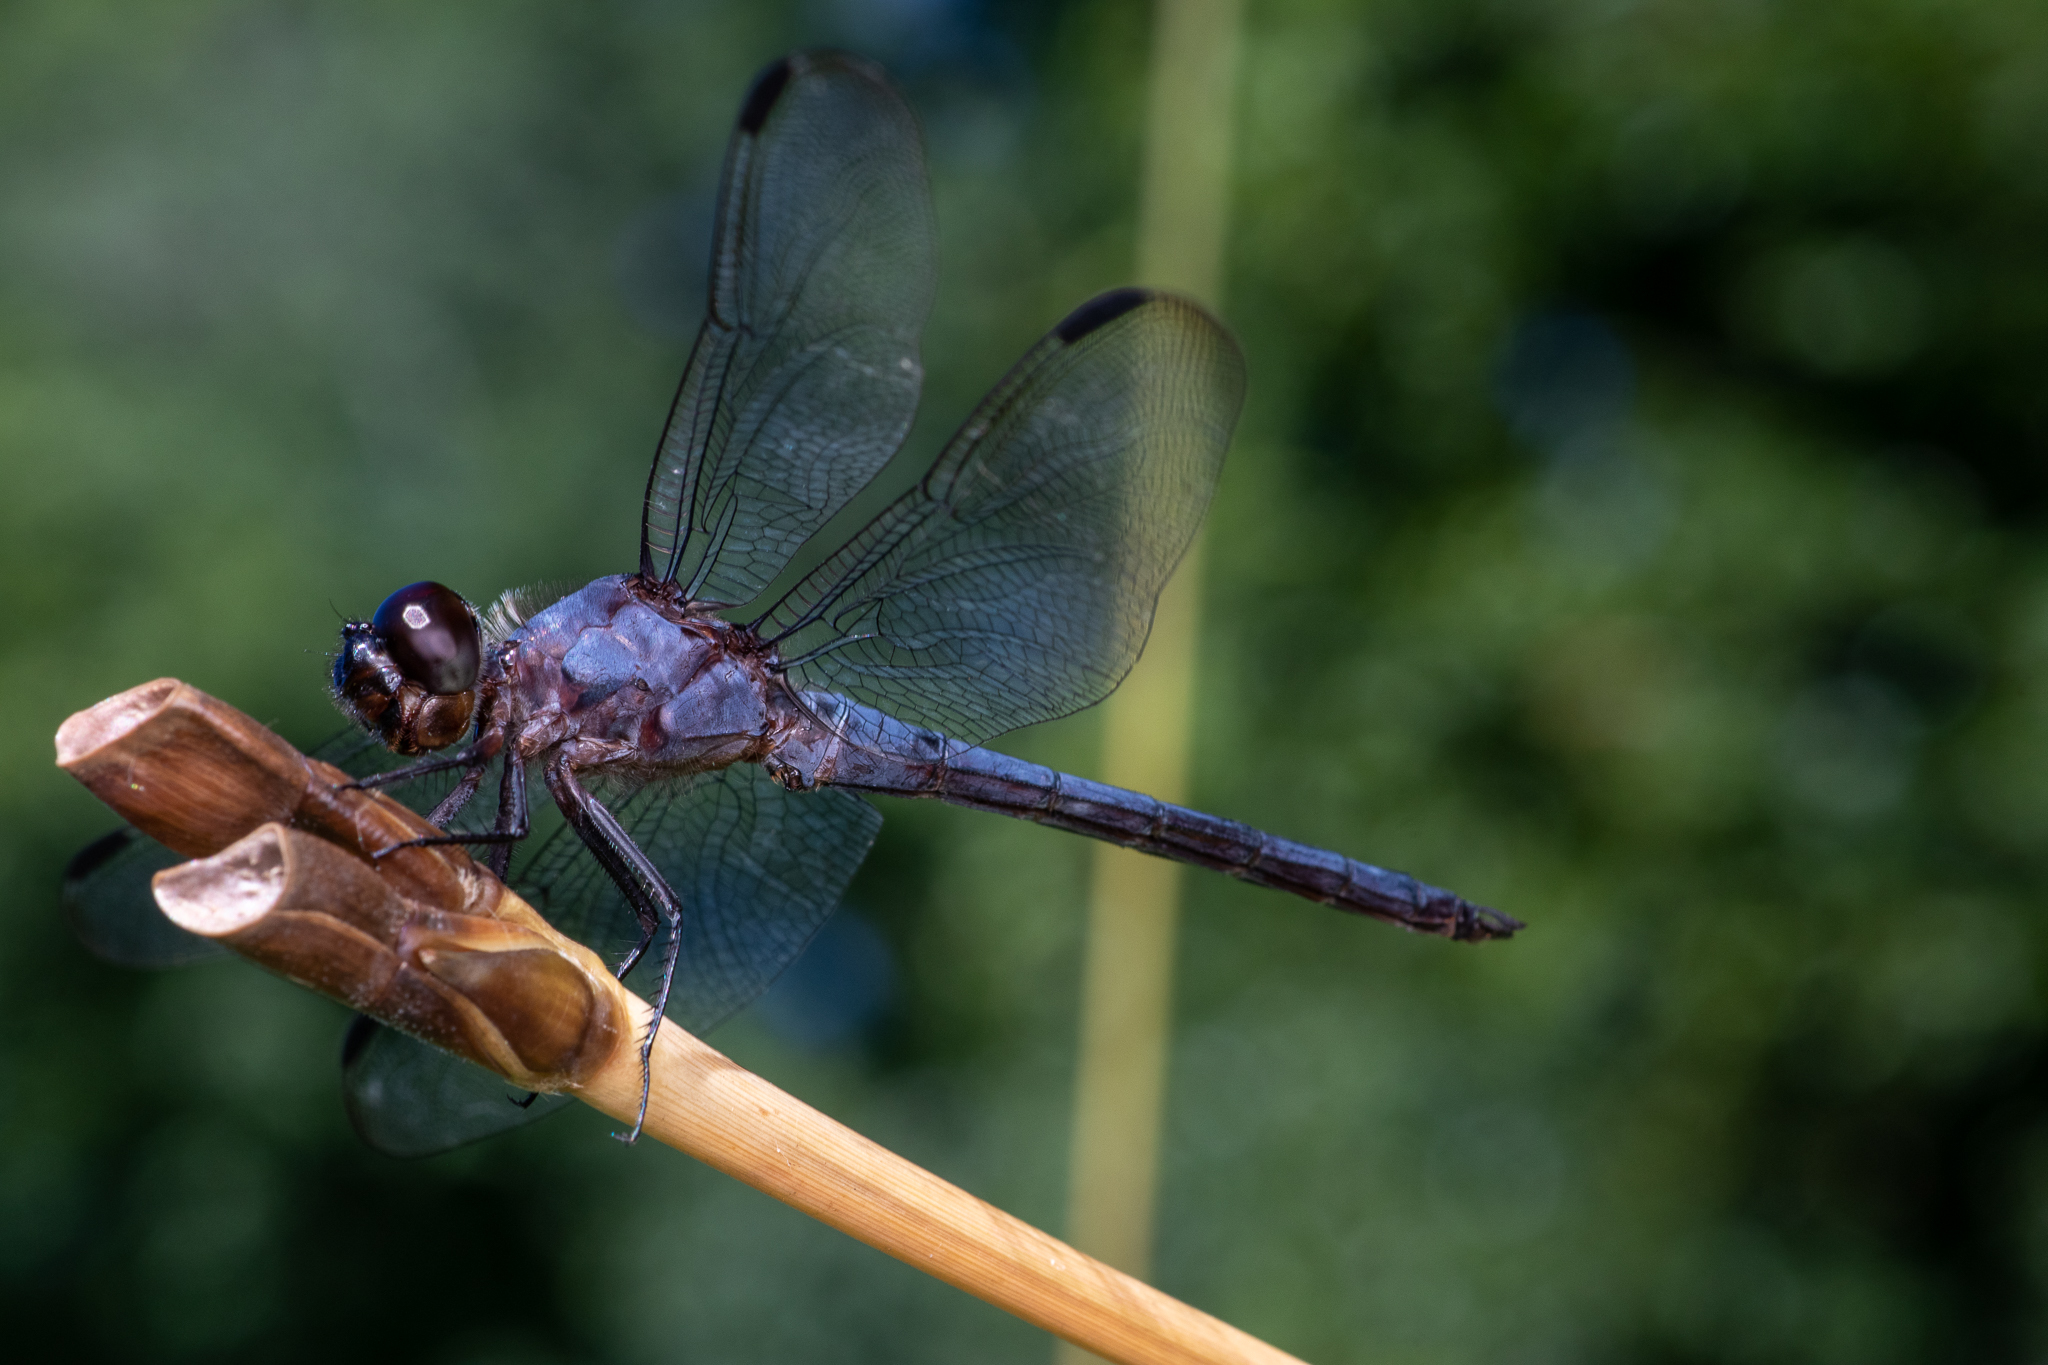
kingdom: Animalia
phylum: Arthropoda
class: Insecta
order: Odonata
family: Libellulidae
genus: Libellula
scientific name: Libellula incesta
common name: Slaty skimmer
